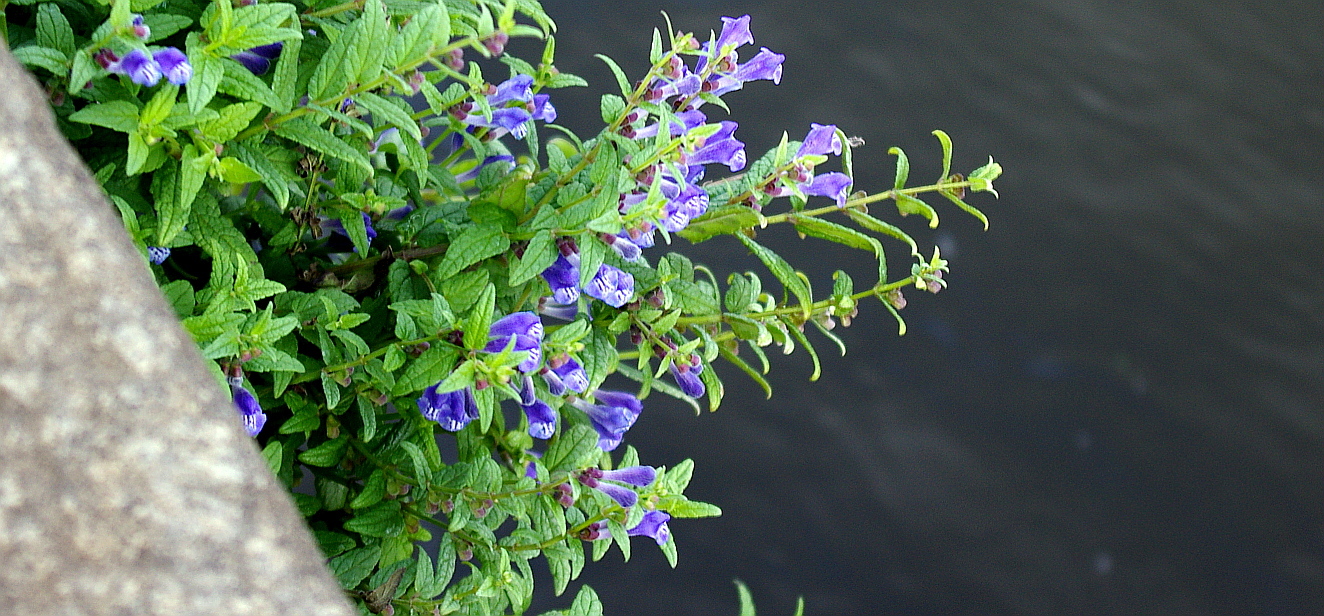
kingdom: Plantae
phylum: Tracheophyta
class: Magnoliopsida
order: Lamiales
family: Lamiaceae
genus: Scutellaria
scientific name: Scutellaria galericulata
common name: Skullcap
